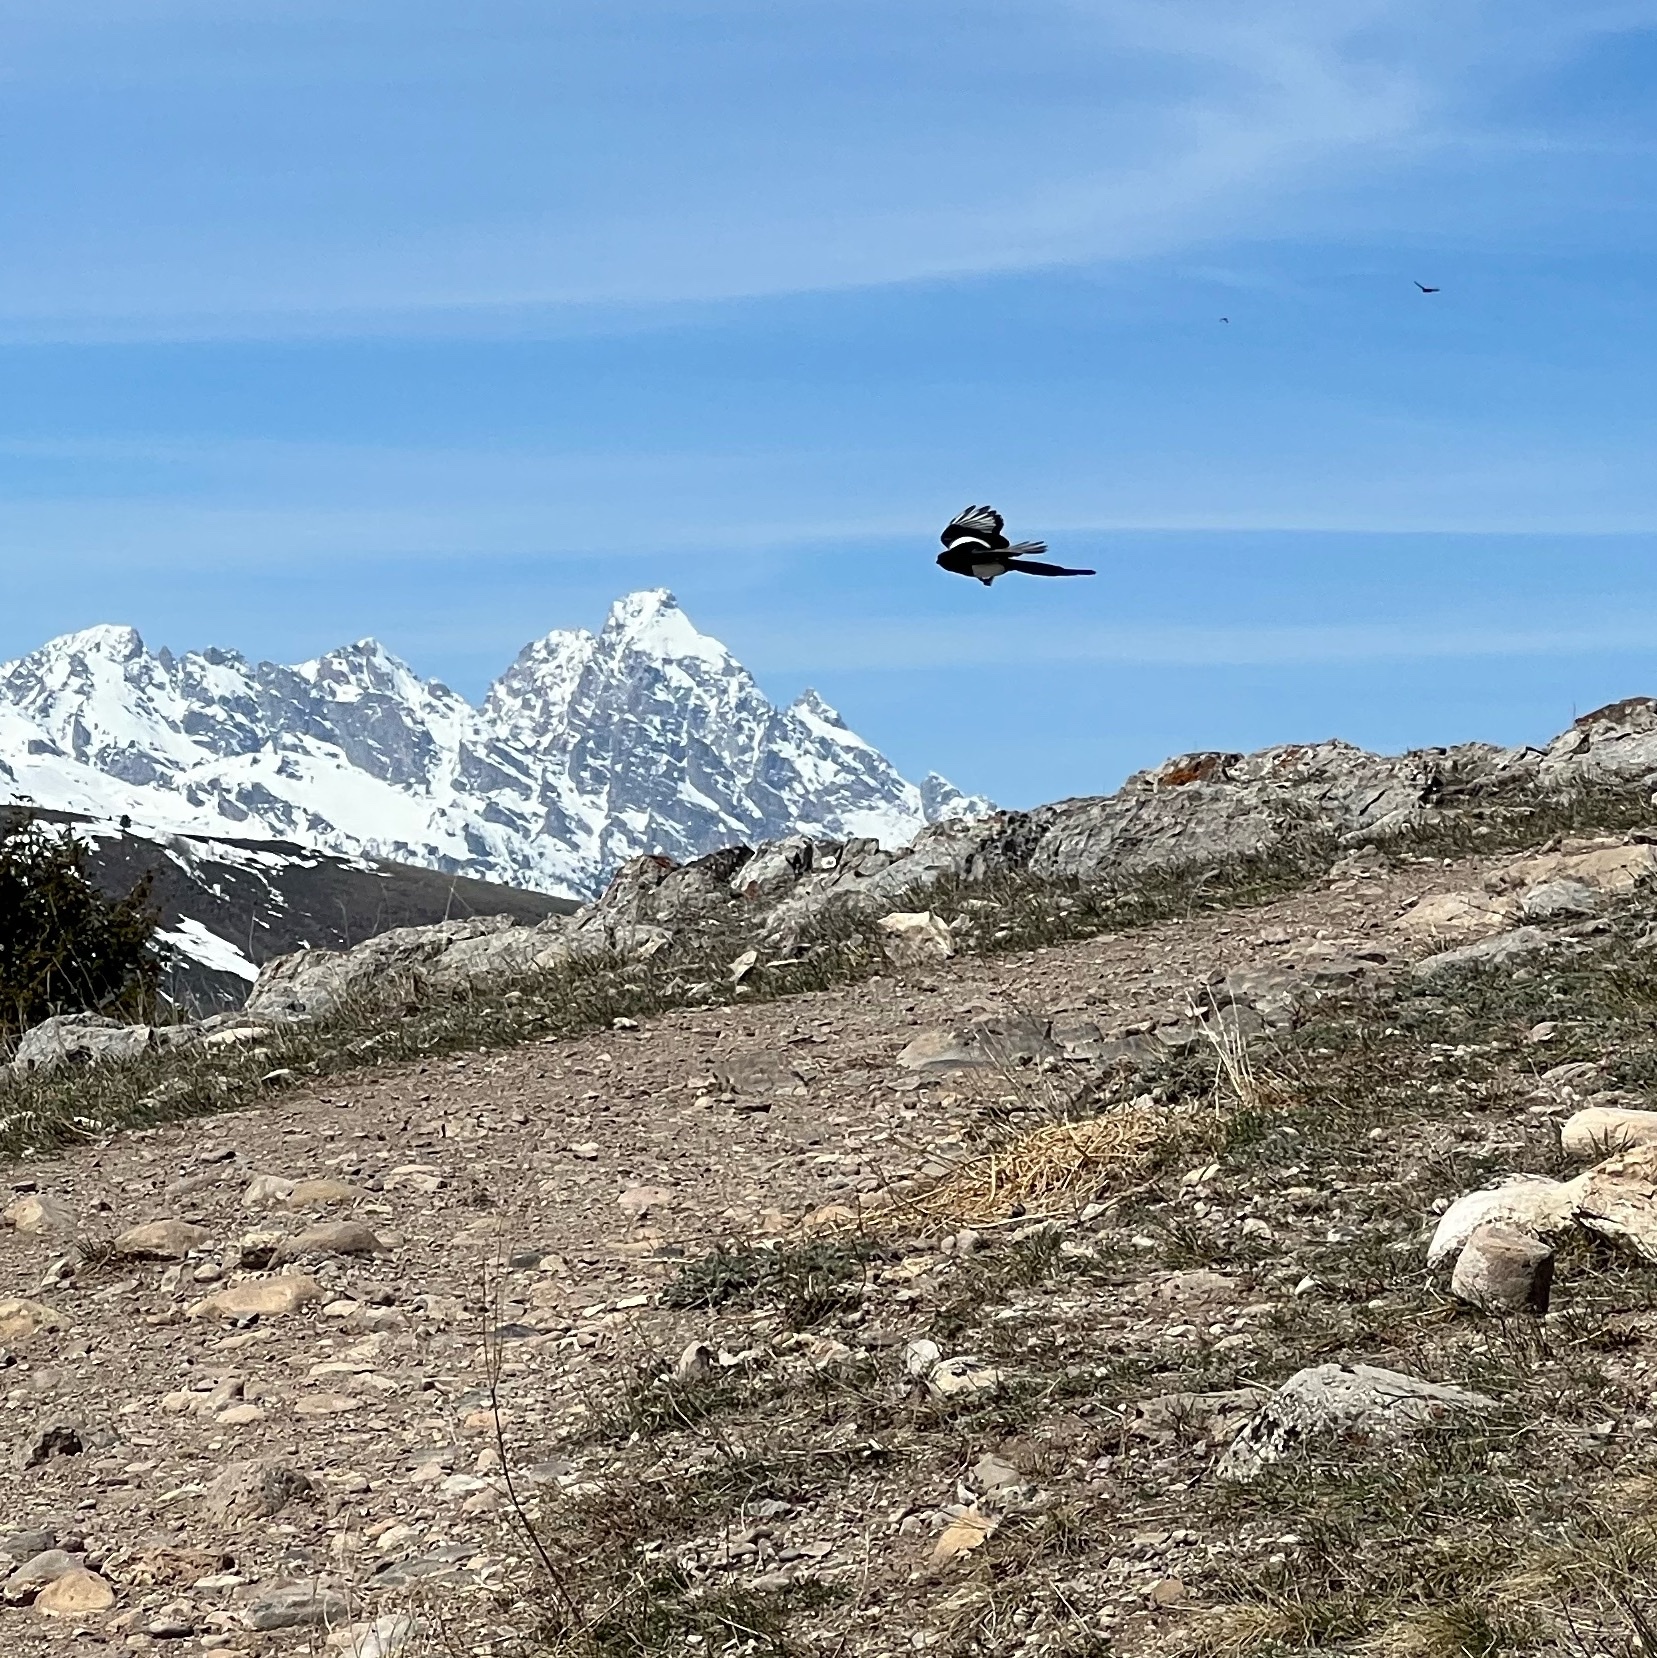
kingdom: Animalia
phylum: Chordata
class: Aves
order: Passeriformes
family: Corvidae
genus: Pica
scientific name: Pica hudsonia
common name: Black-billed magpie
